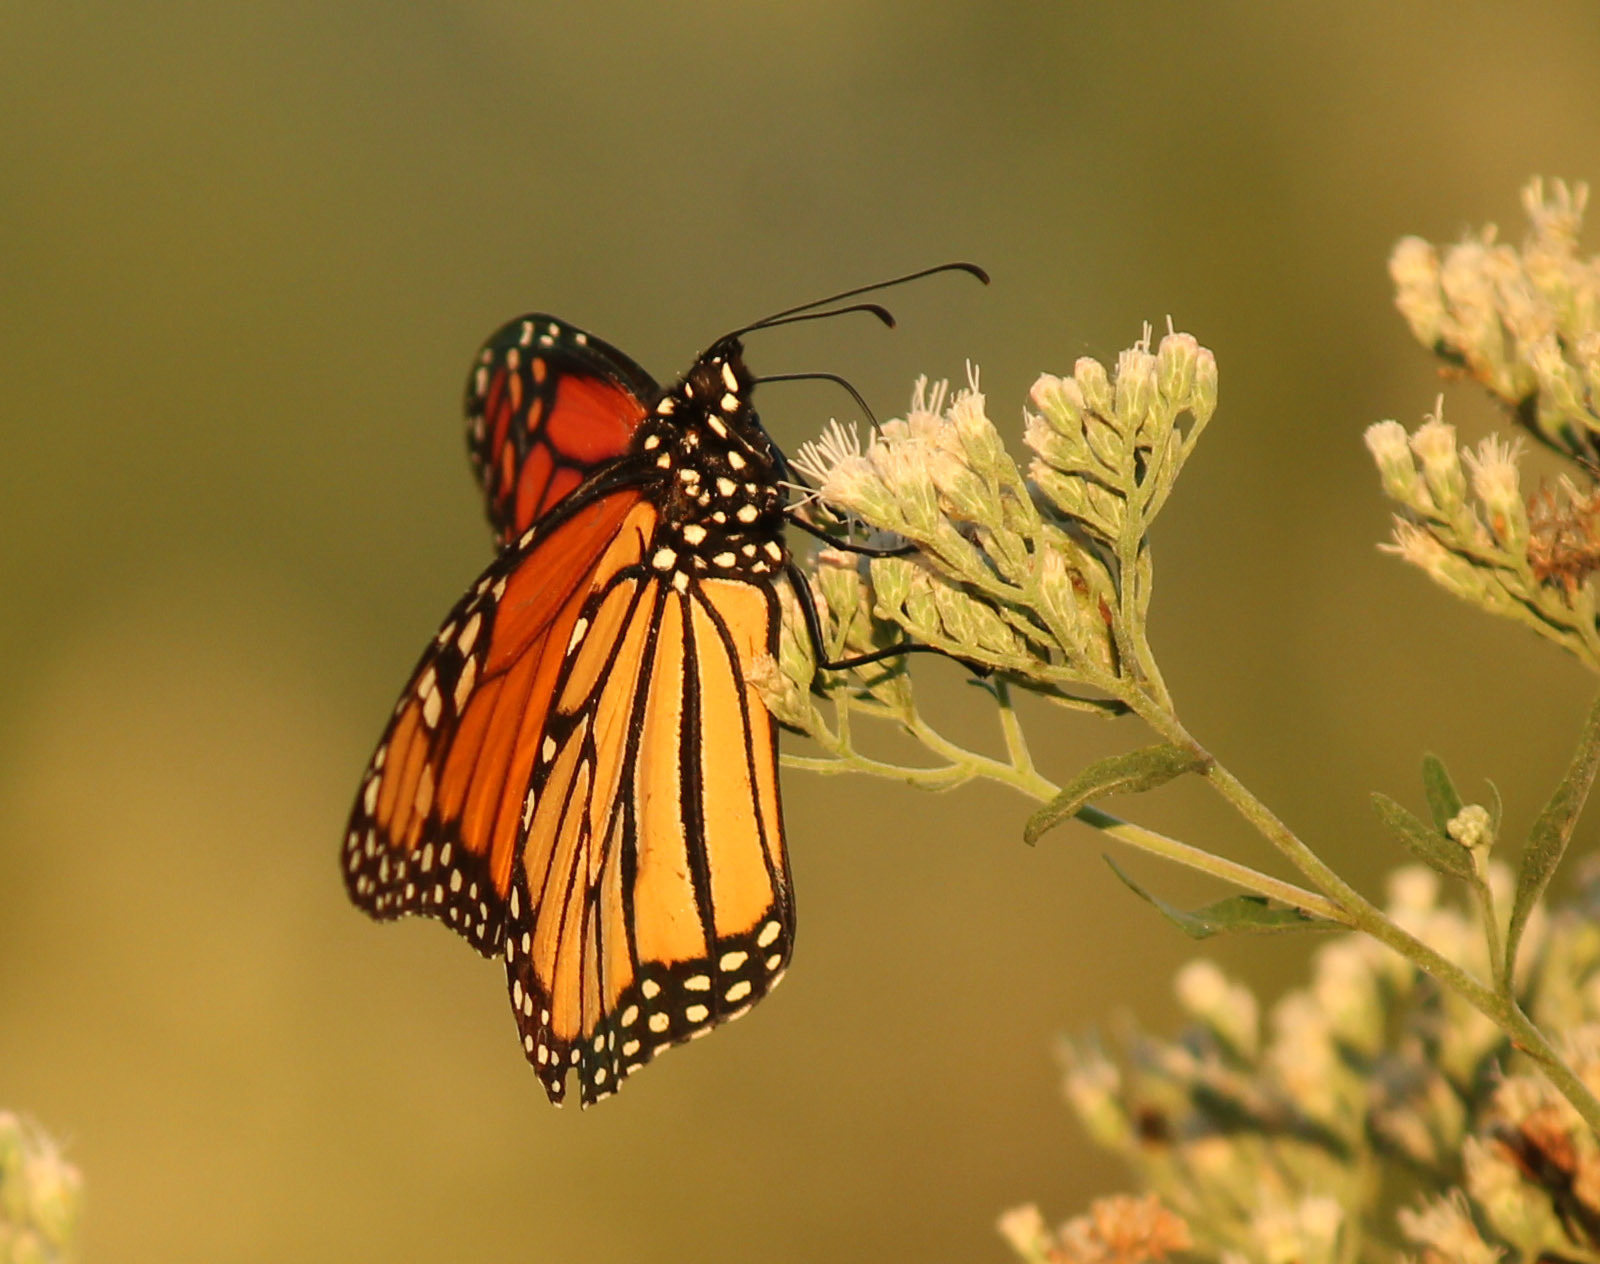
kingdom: Animalia
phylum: Arthropoda
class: Insecta
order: Lepidoptera
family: Nymphalidae
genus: Danaus
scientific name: Danaus plexippus
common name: Monarch
